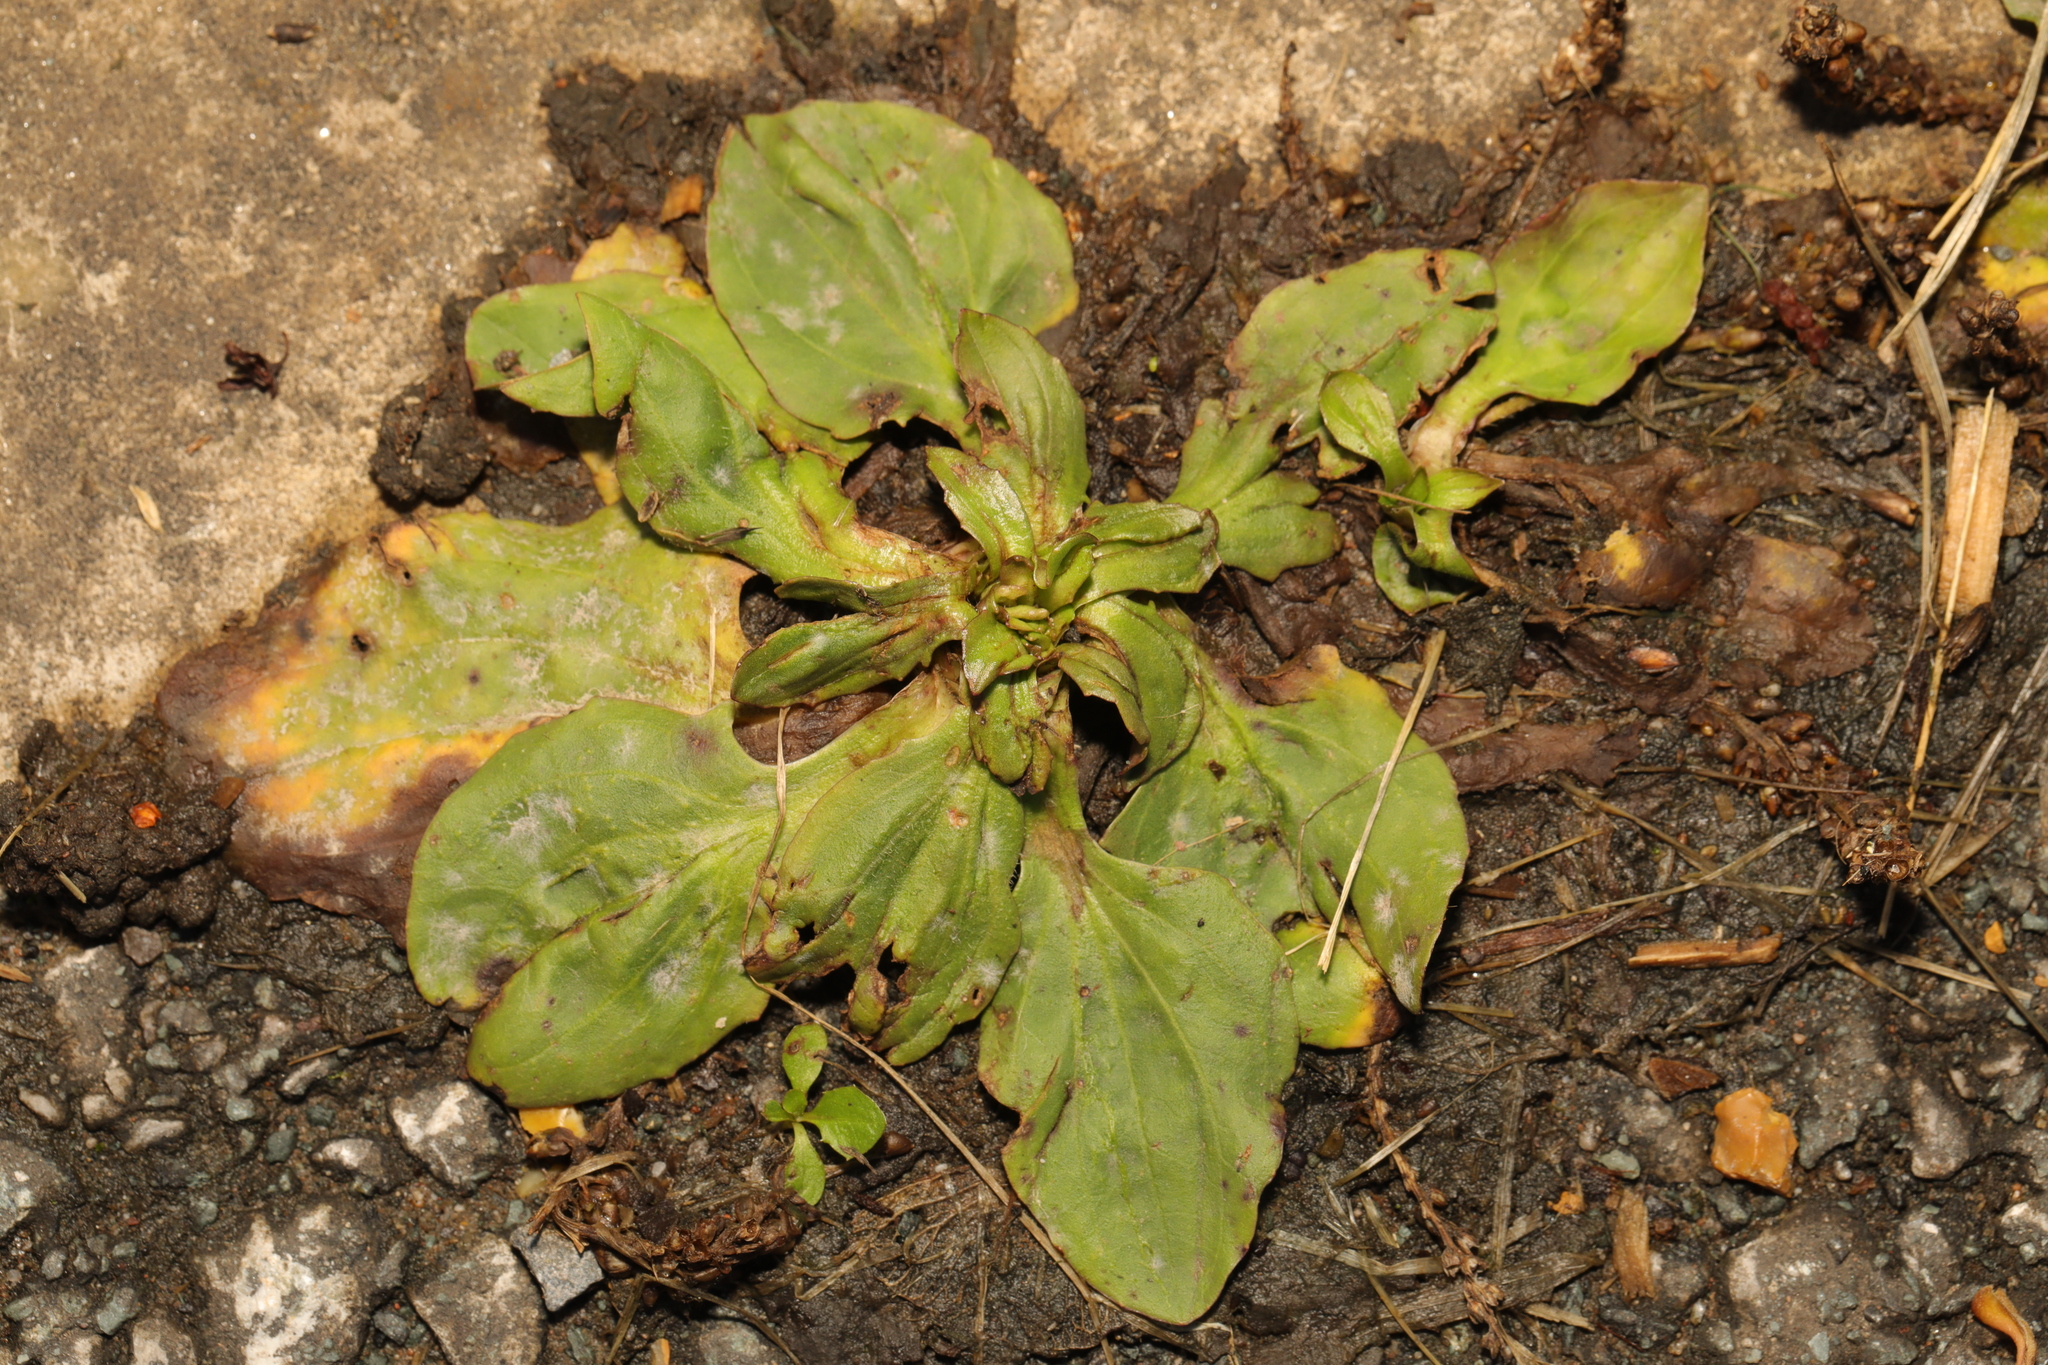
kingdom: Plantae
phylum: Tracheophyta
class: Magnoliopsida
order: Lamiales
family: Plantaginaceae
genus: Plantago
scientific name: Plantago major
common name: Common plantain
